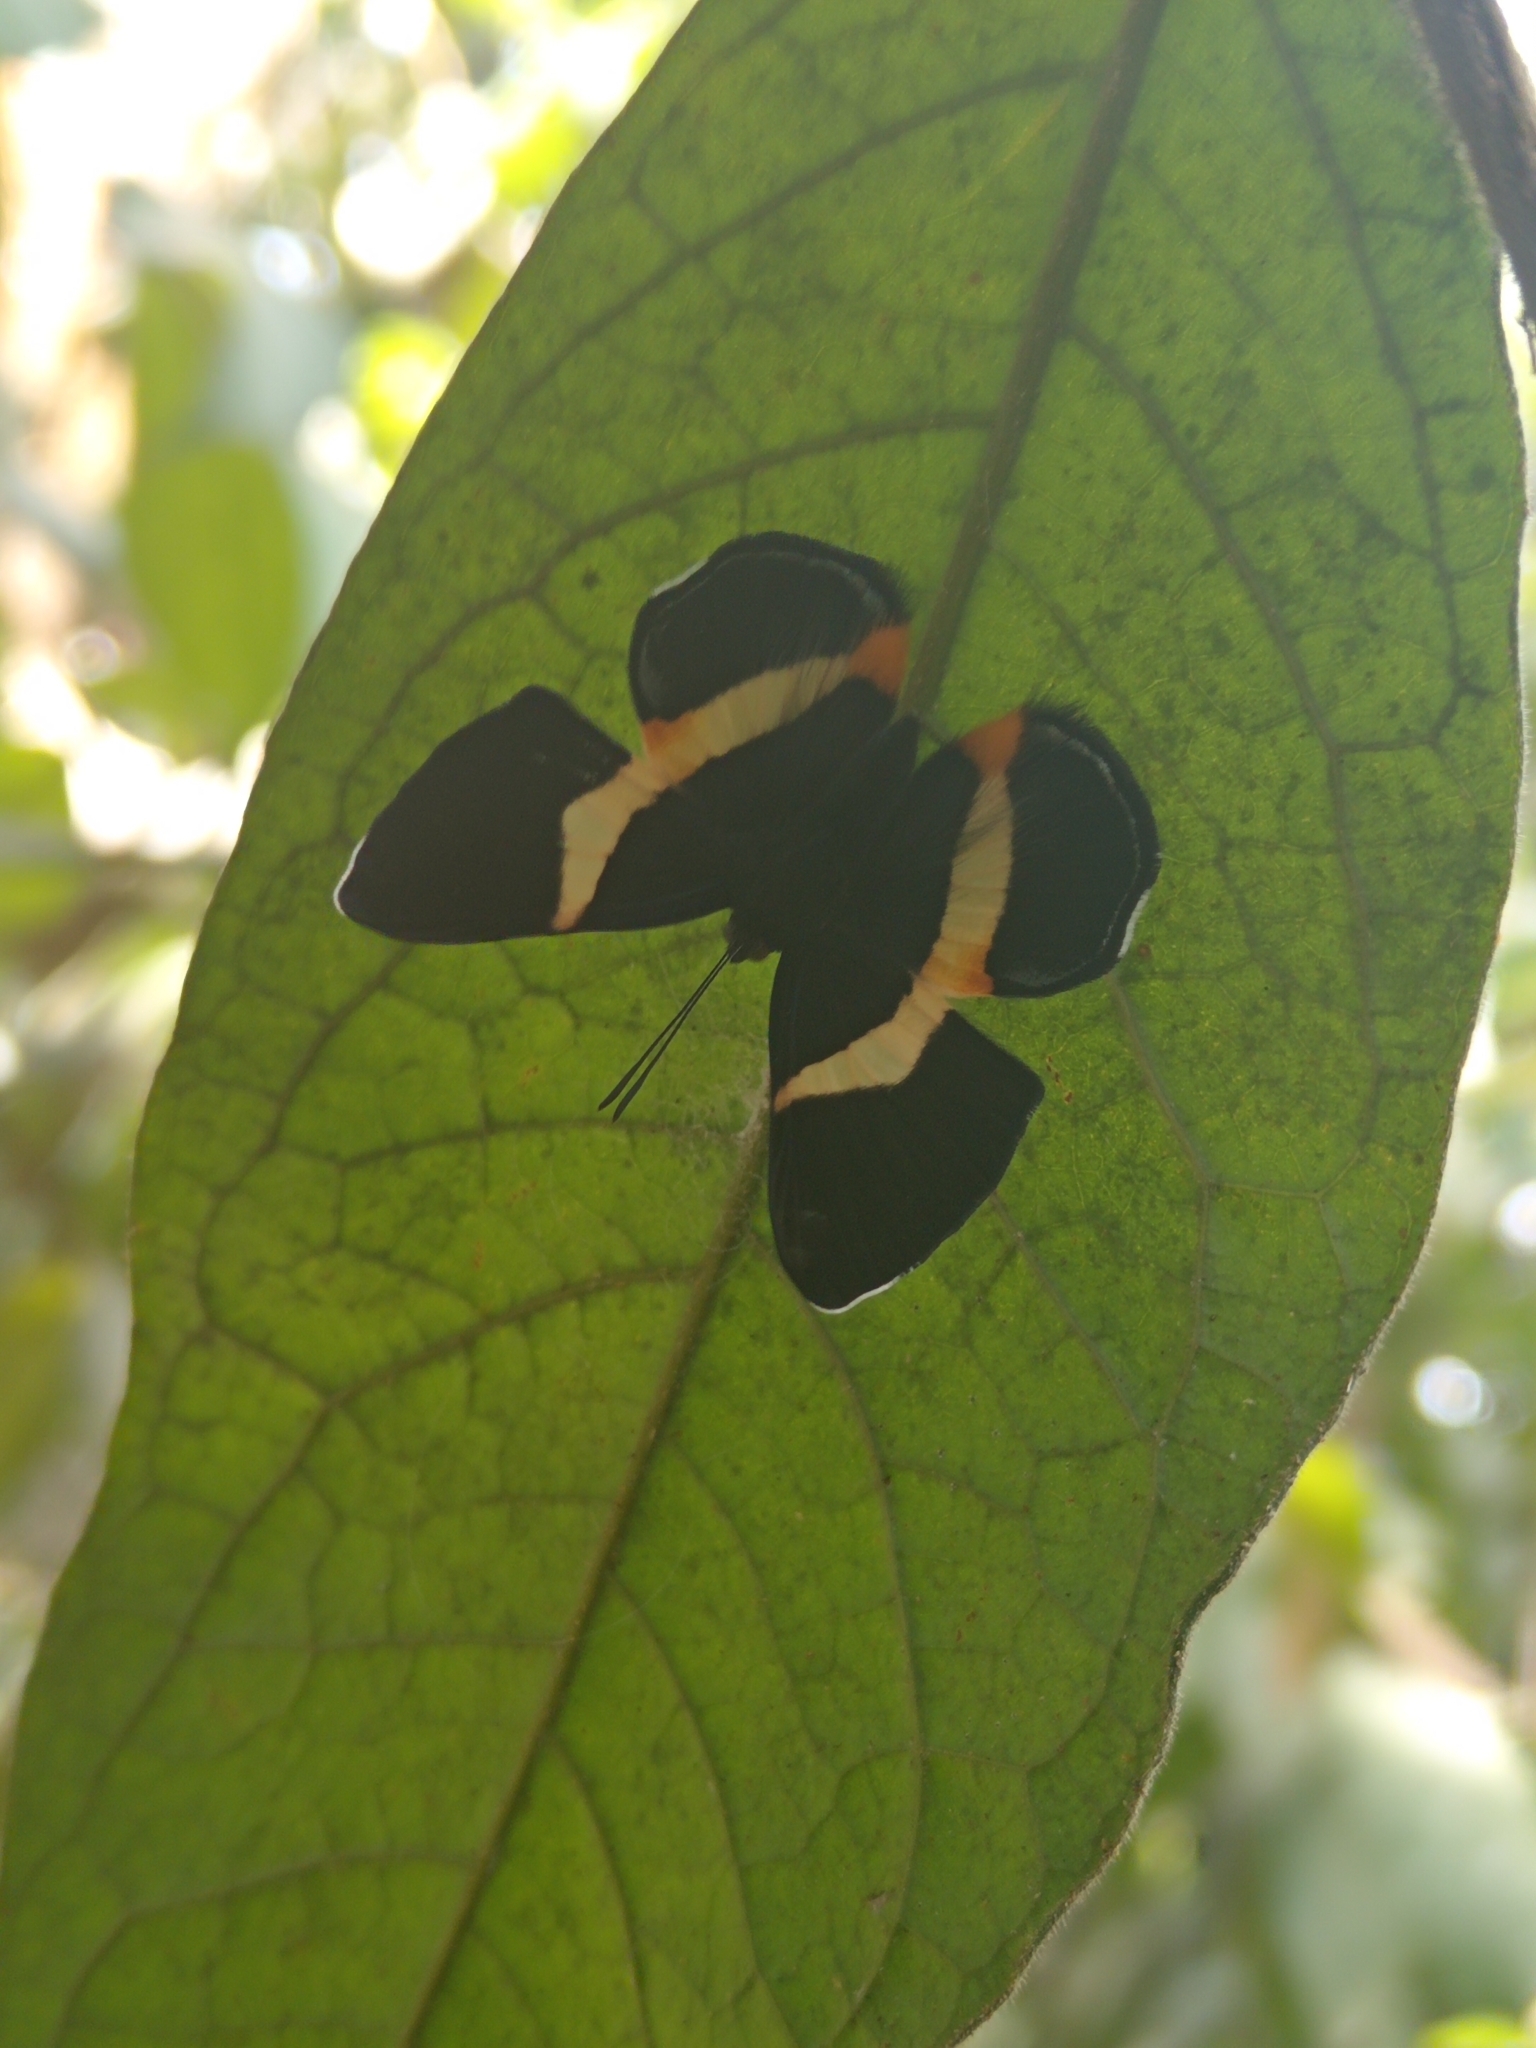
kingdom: Animalia
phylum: Arthropoda
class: Insecta
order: Lepidoptera
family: Riodinidae
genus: Notheme
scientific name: Notheme eumeus
